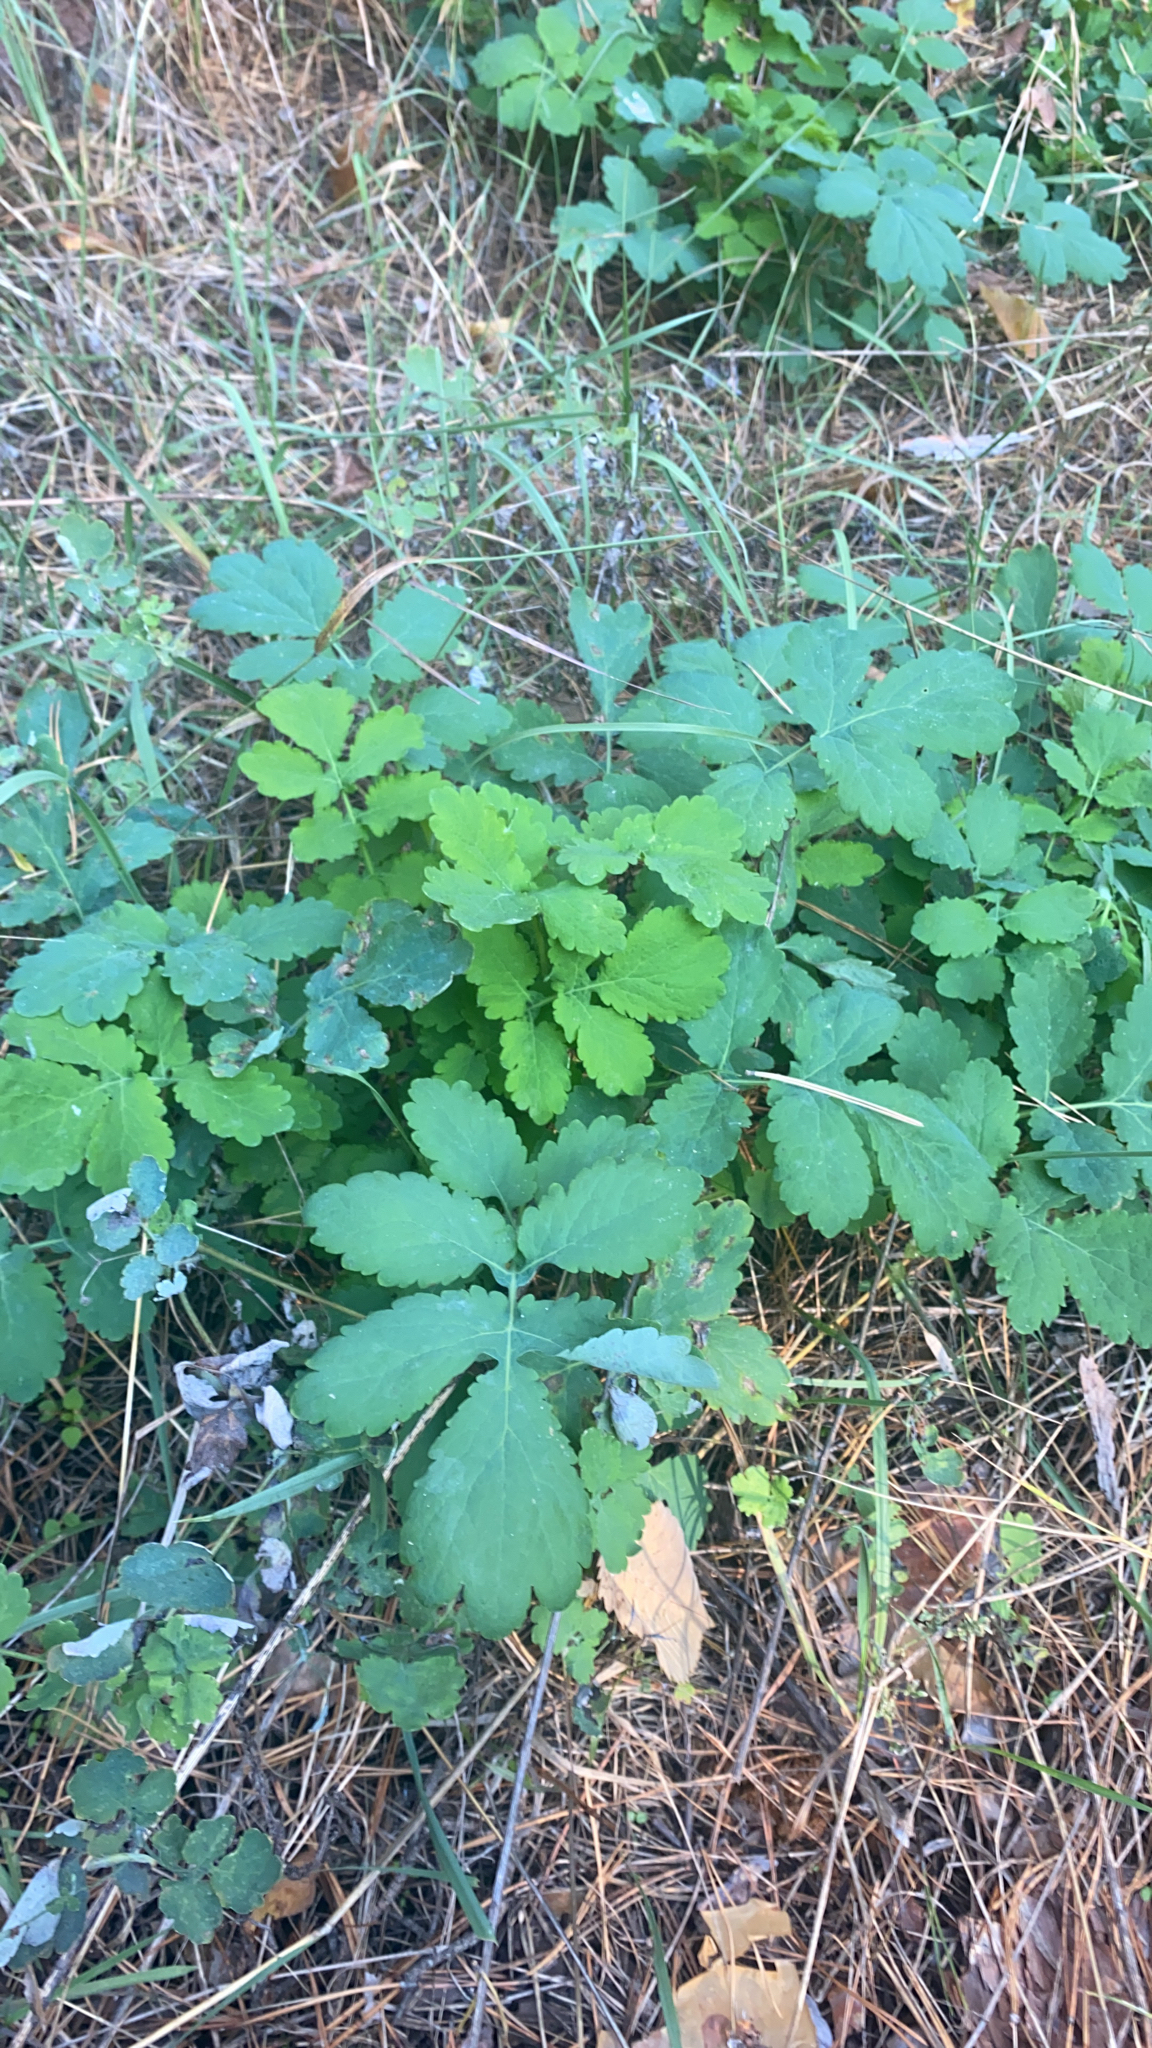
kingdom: Plantae
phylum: Tracheophyta
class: Magnoliopsida
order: Ranunculales
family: Papaveraceae
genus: Chelidonium
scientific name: Chelidonium majus
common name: Greater celandine
